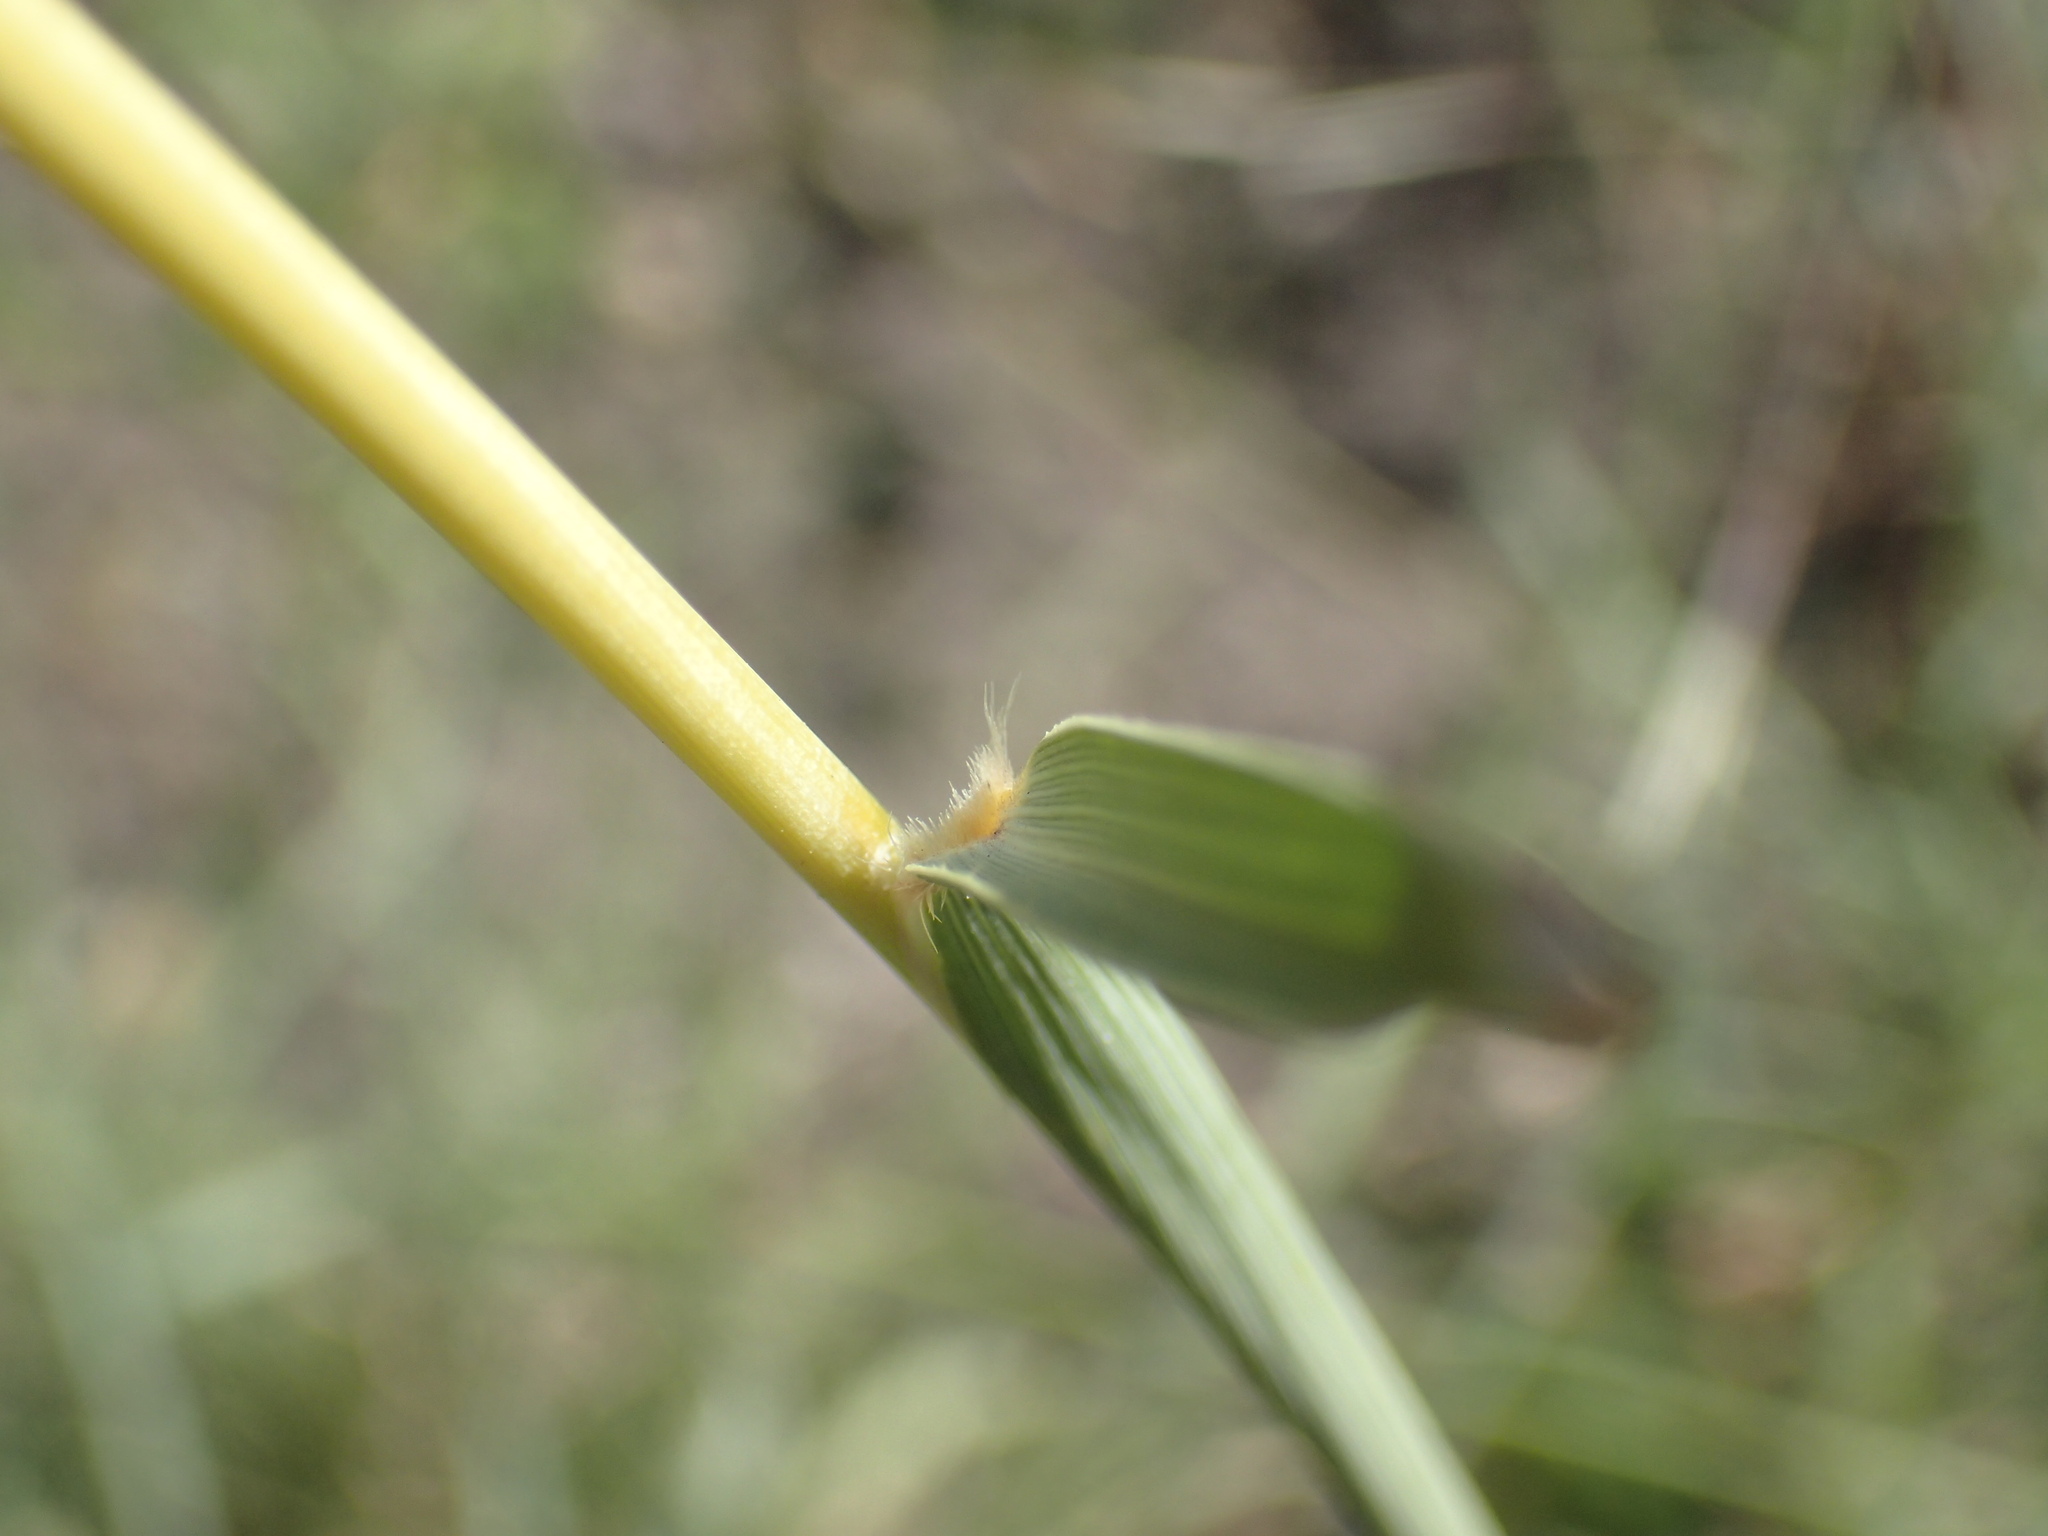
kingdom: Plantae
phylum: Tracheophyta
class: Liliopsida
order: Poales
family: Poaceae
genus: Trachypogon
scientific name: Trachypogon spicatus
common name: Crinkle-awn
